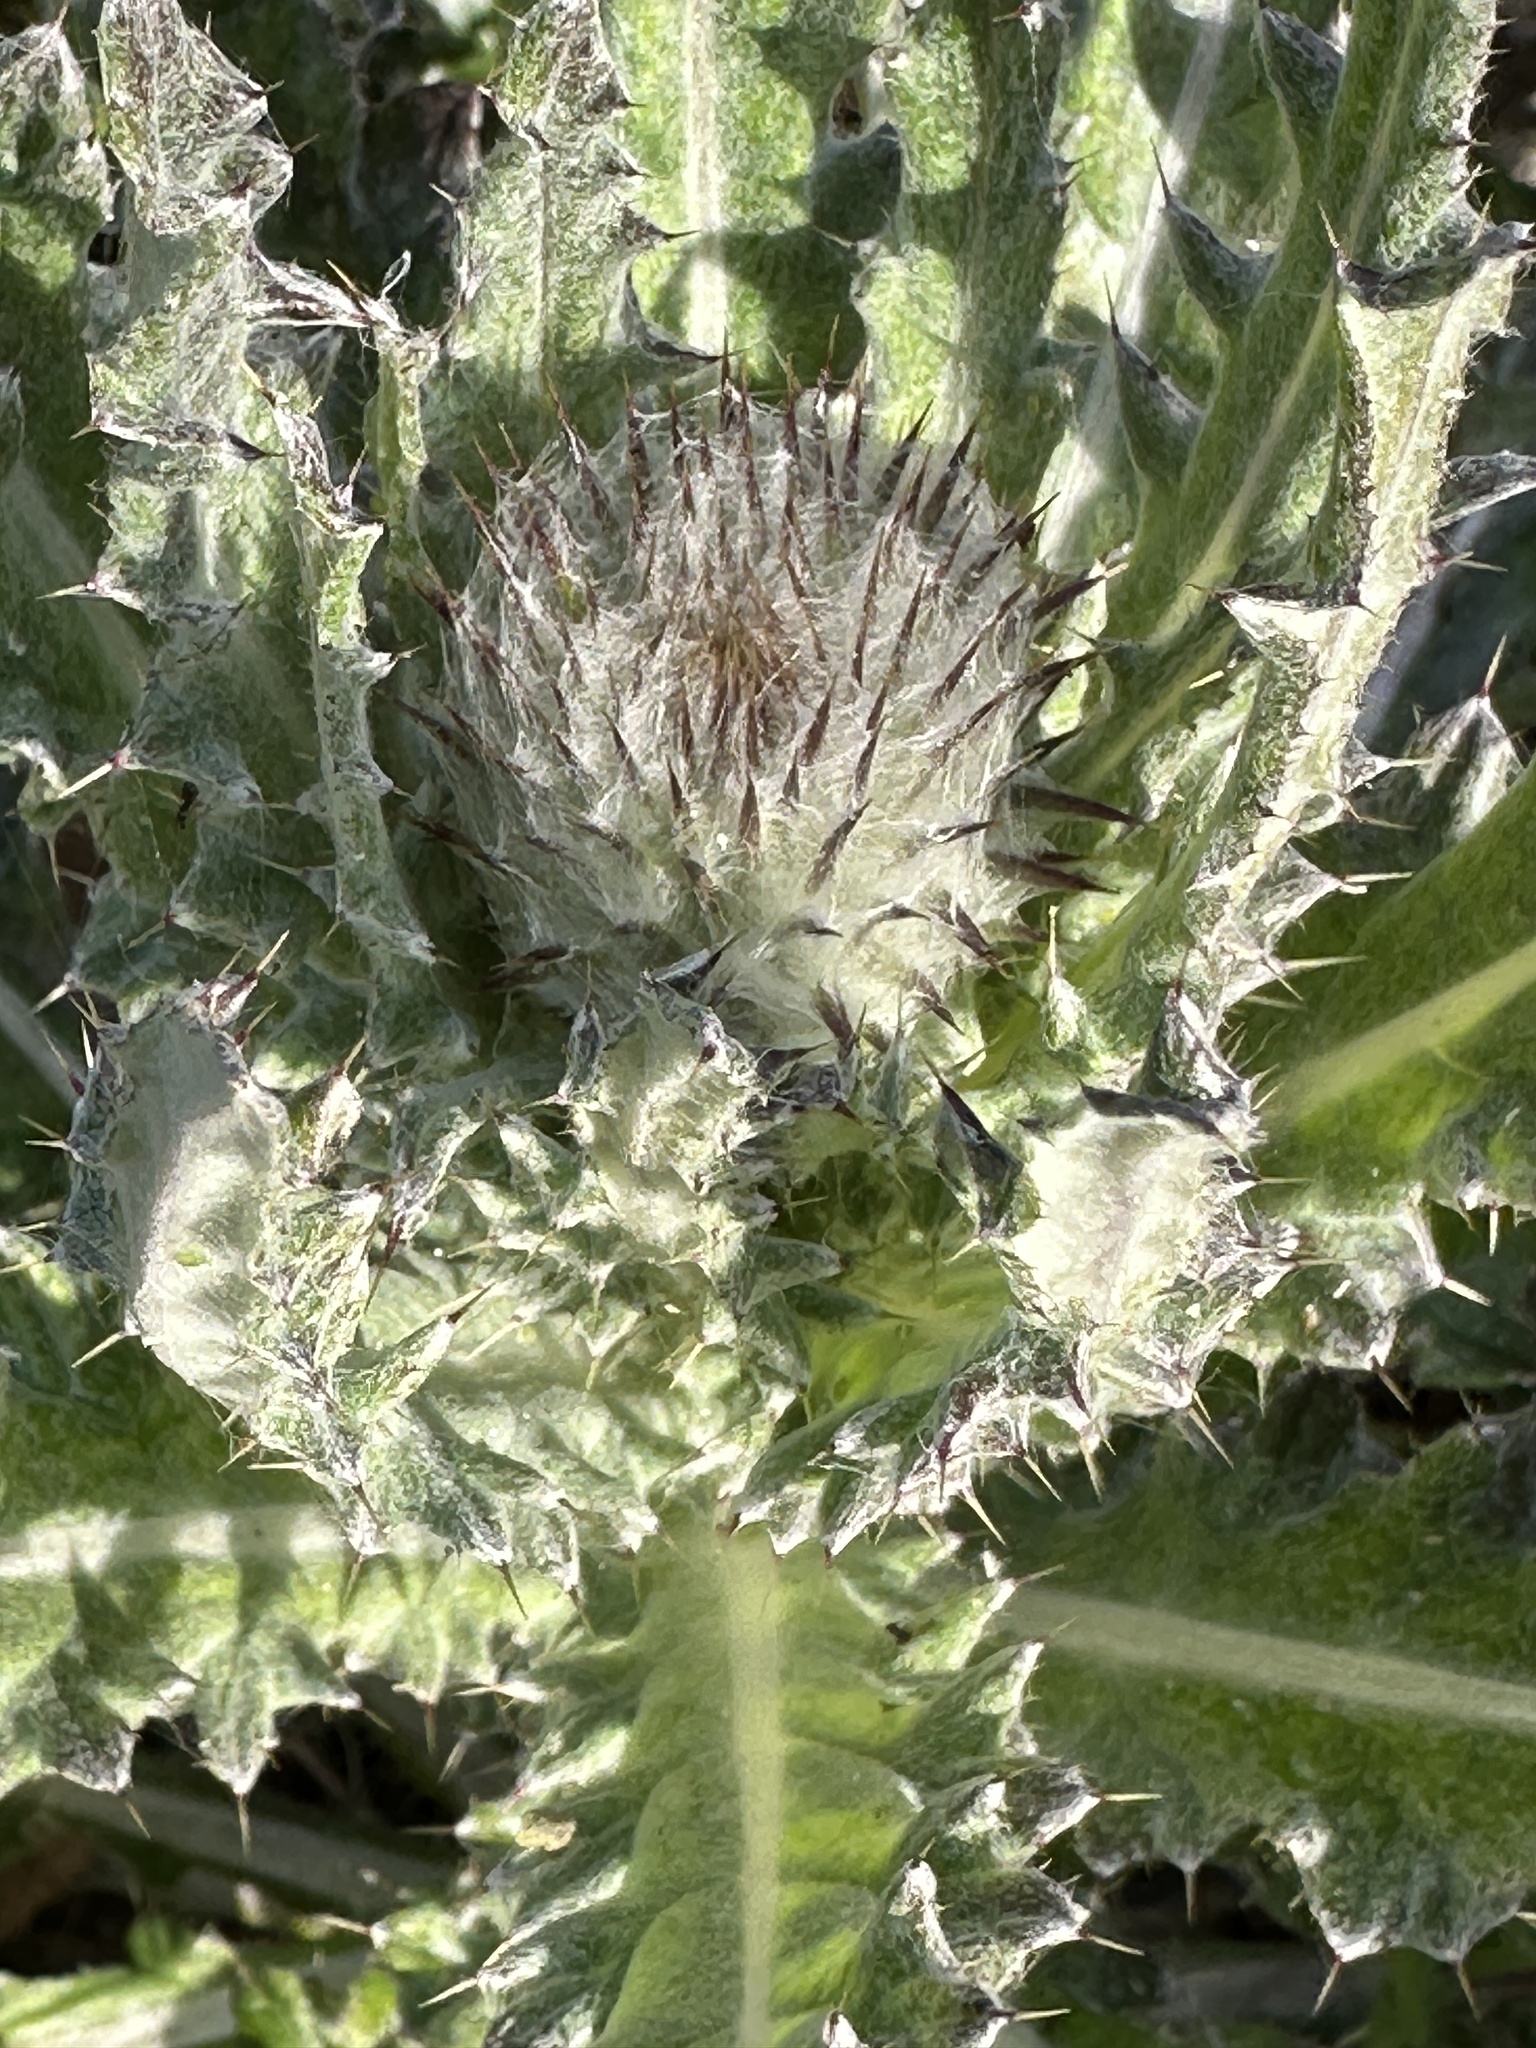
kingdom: Plantae
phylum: Tracheophyta
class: Magnoliopsida
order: Asterales
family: Asteraceae
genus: Cirsium
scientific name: Cirsium occidentale
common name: Western thistle
